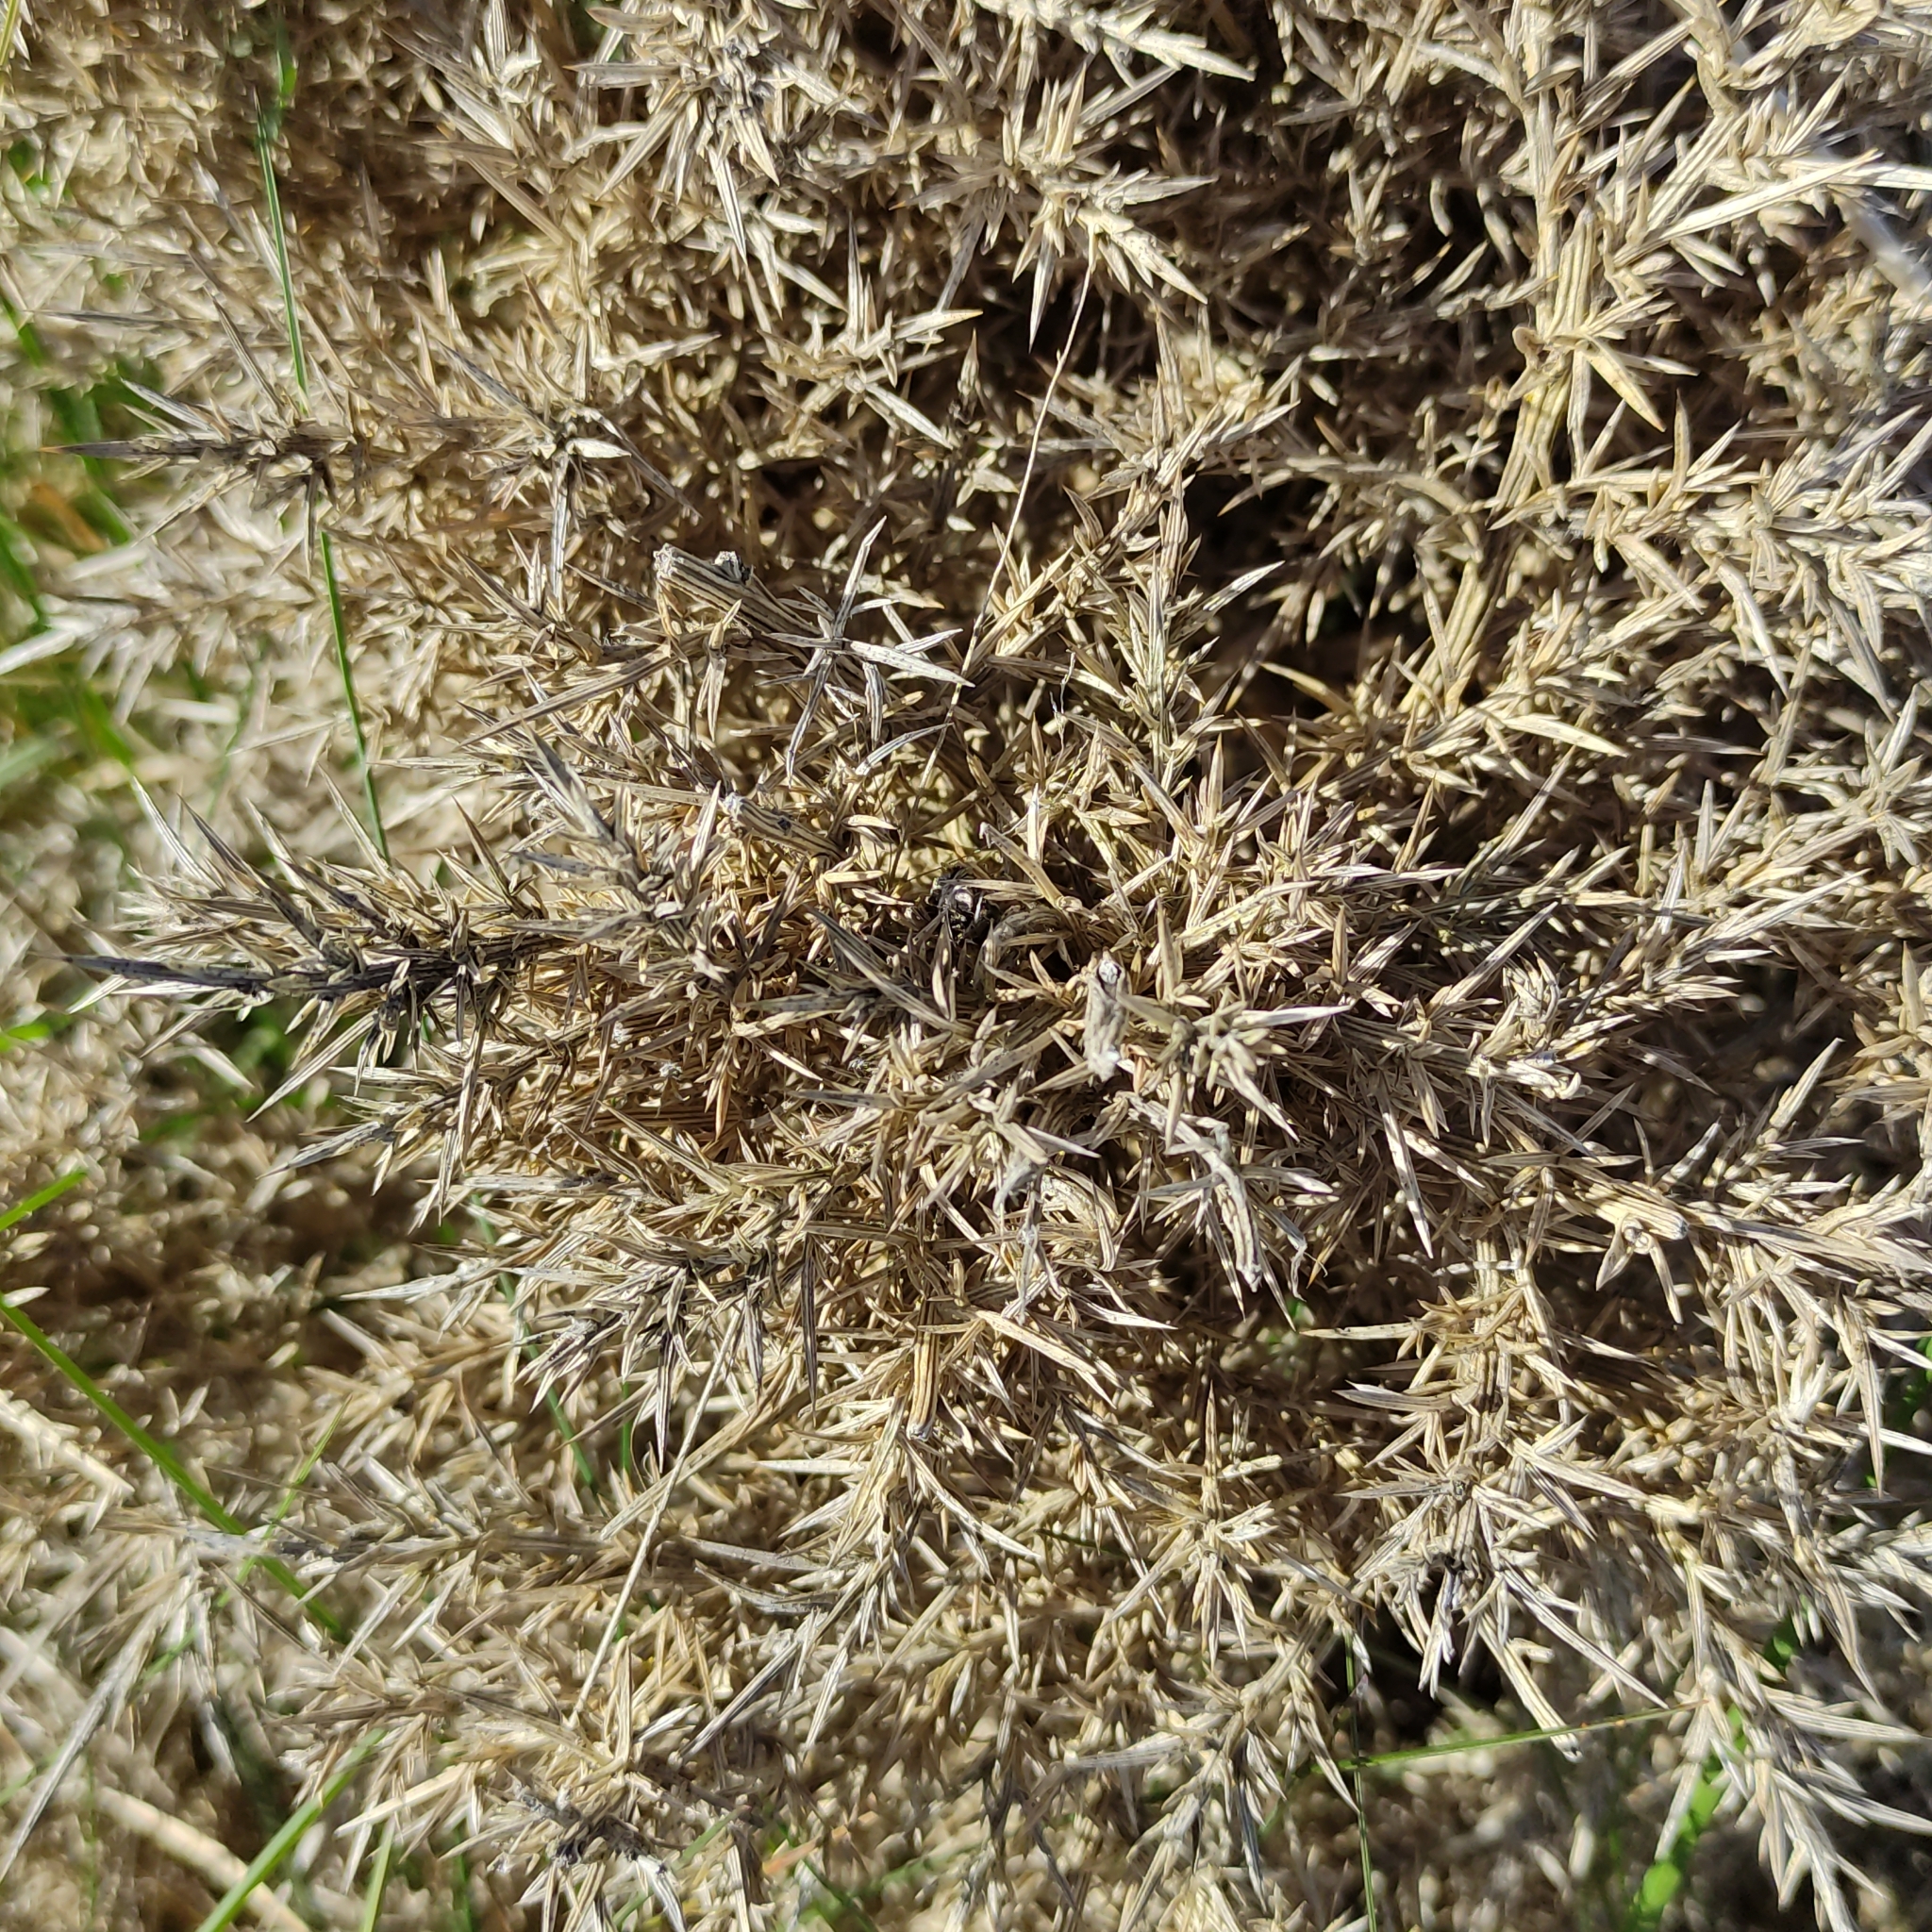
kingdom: Plantae
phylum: Tracheophyta
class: Magnoliopsida
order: Fabales
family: Fabaceae
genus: Ulex
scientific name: Ulex europaeus
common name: Common gorse
